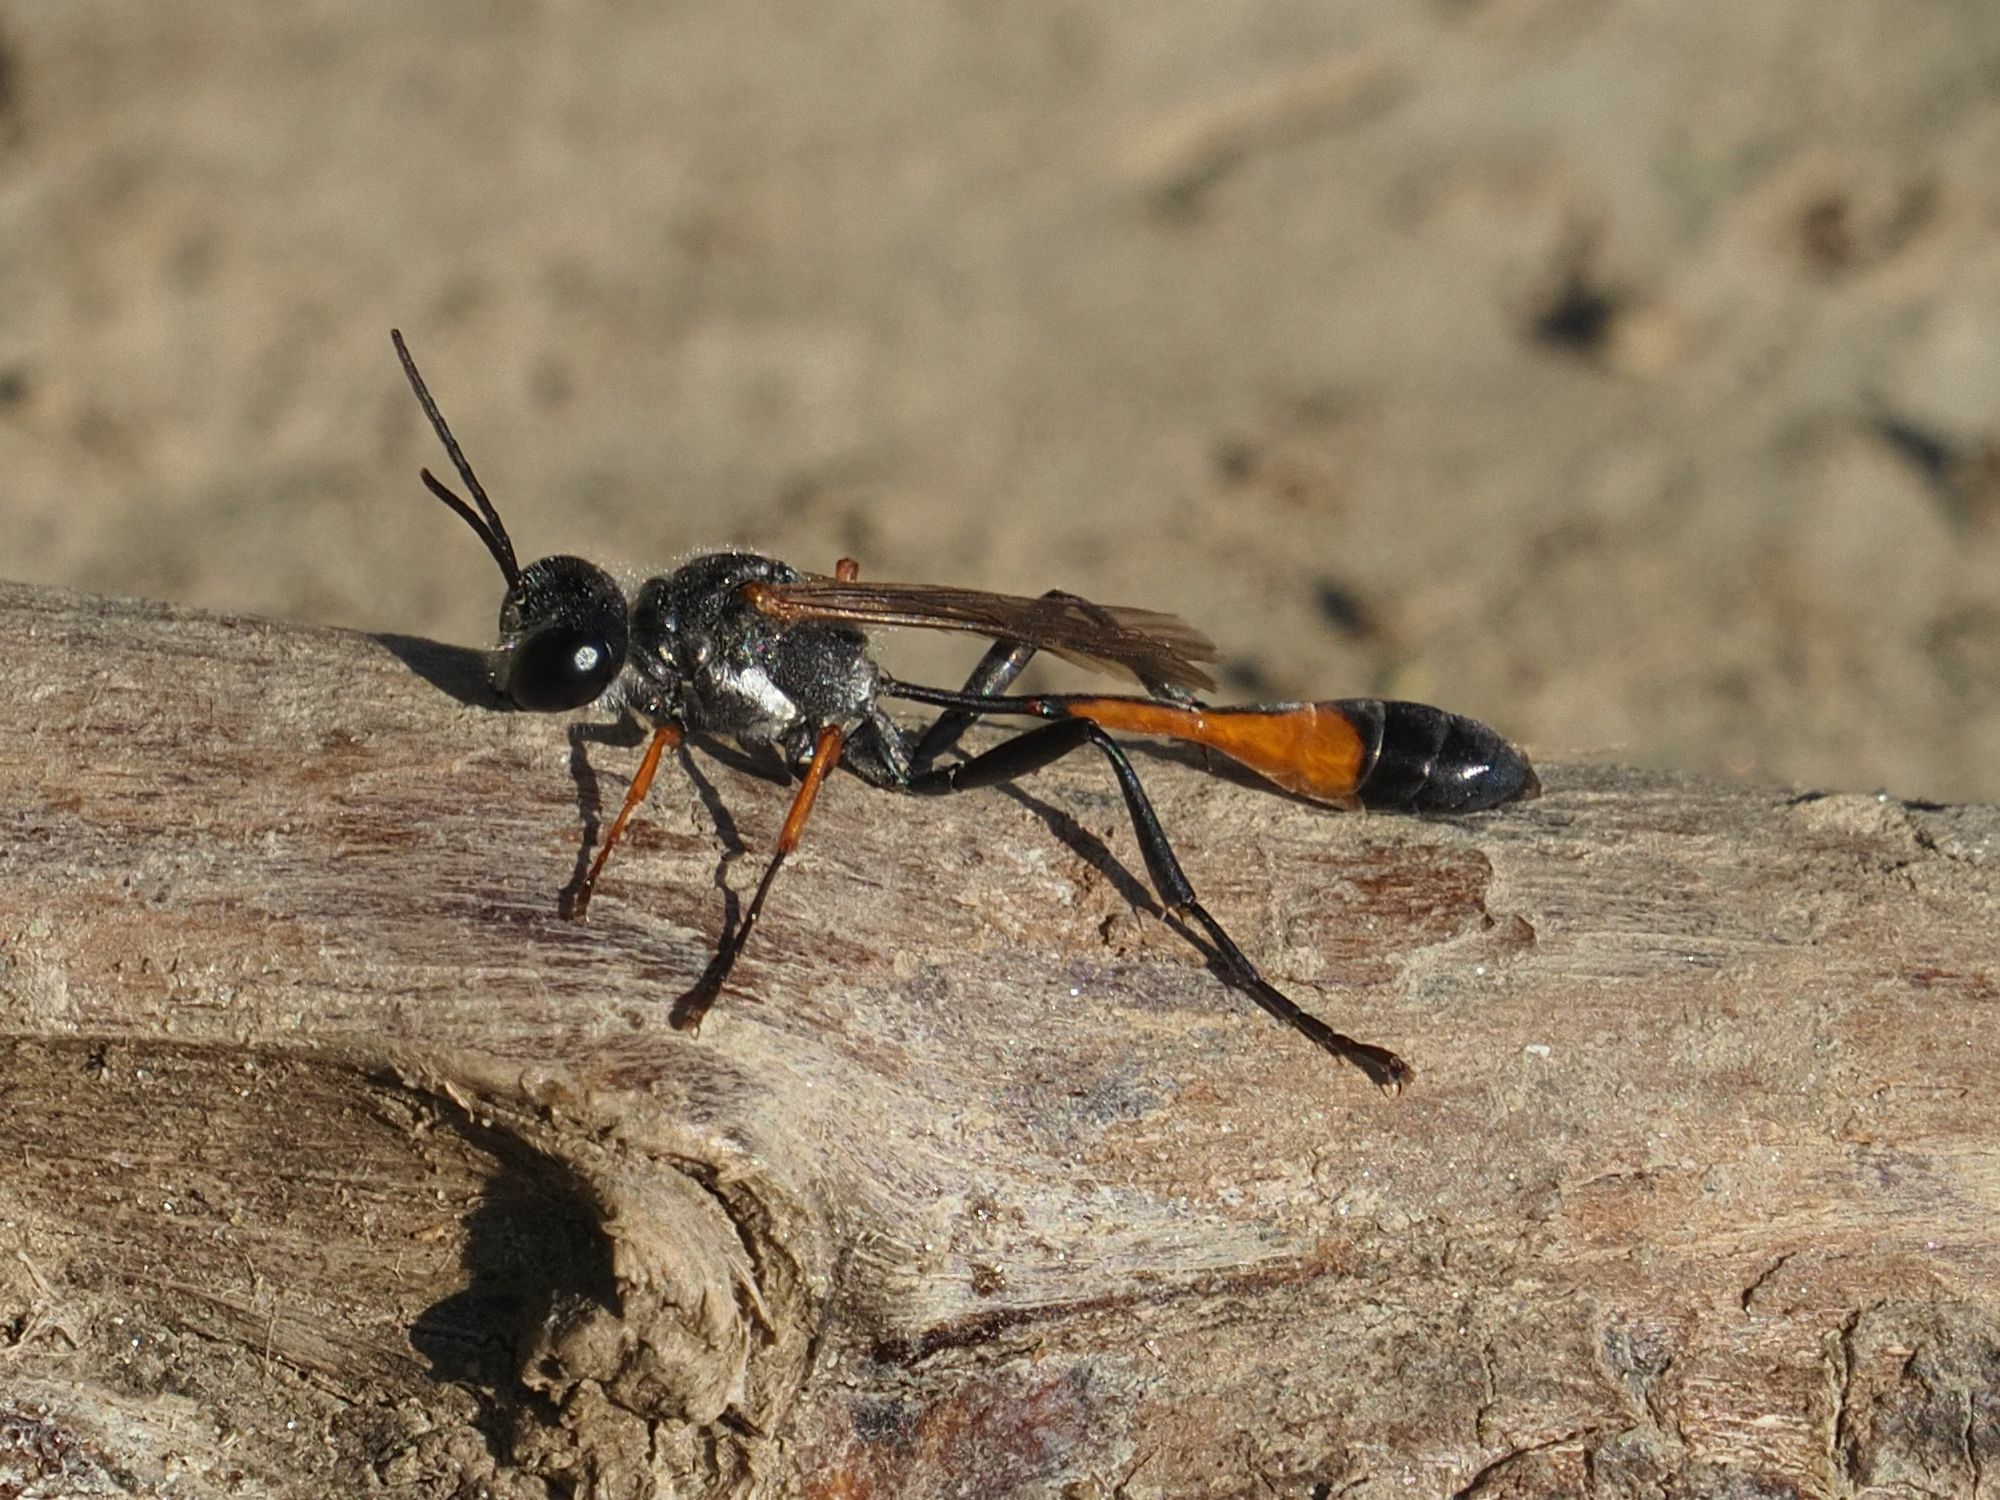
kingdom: Animalia
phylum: Arthropoda
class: Insecta
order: Hymenoptera
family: Sphecidae
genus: Ammophila
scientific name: Ammophila heydeni
